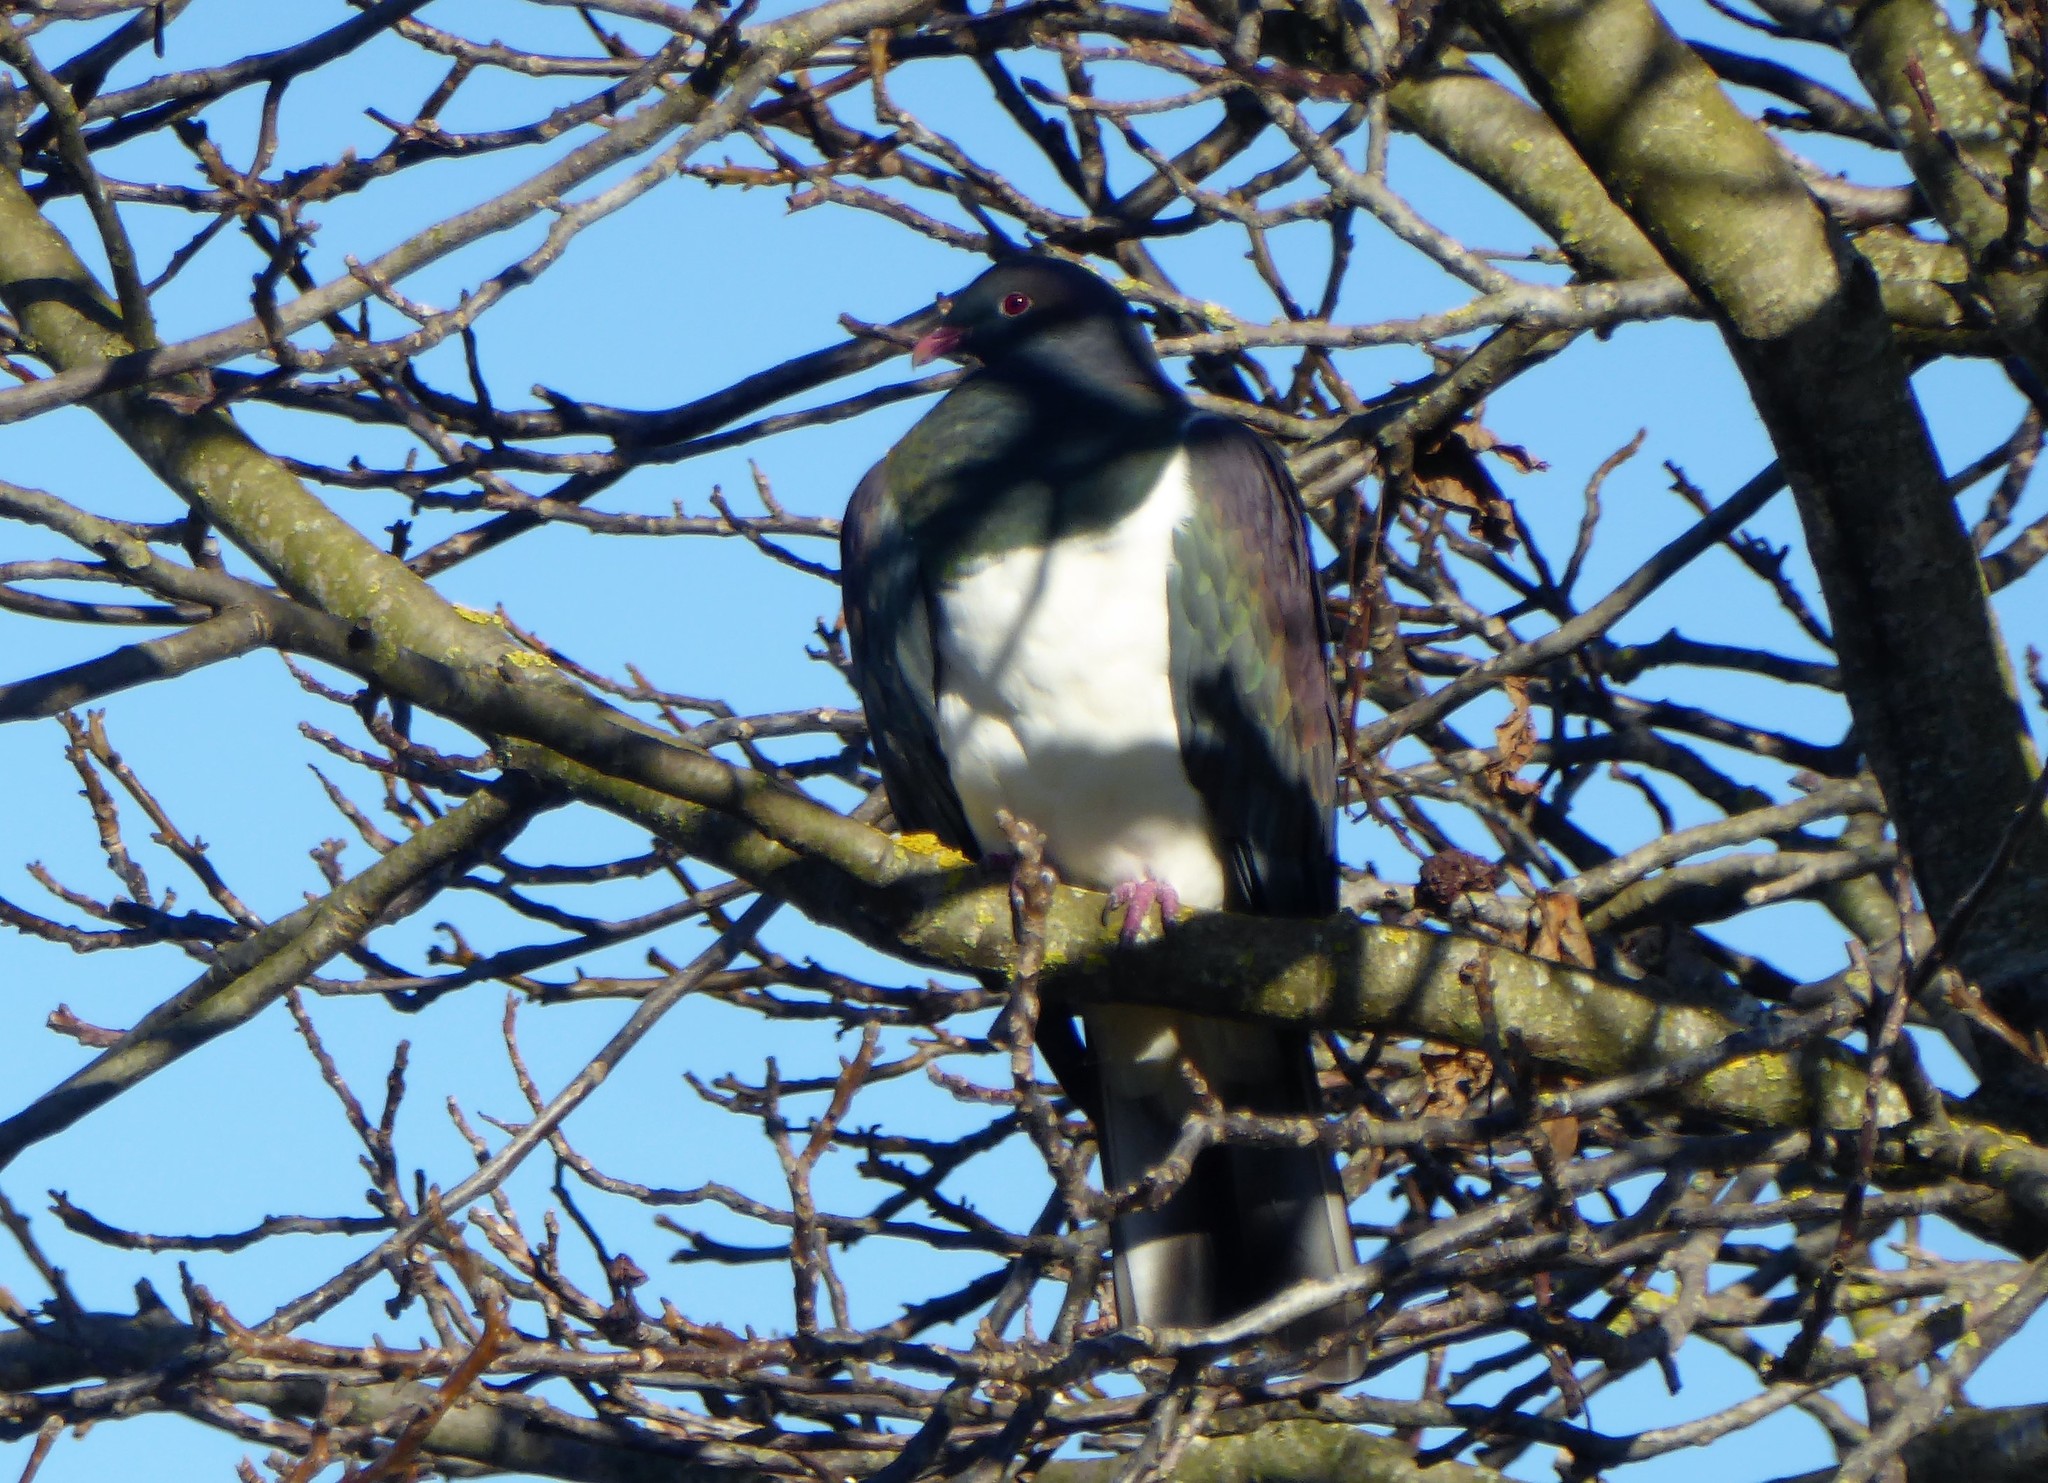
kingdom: Animalia
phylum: Chordata
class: Aves
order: Columbiformes
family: Columbidae
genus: Hemiphaga
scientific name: Hemiphaga novaeseelandiae
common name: New zealand pigeon
